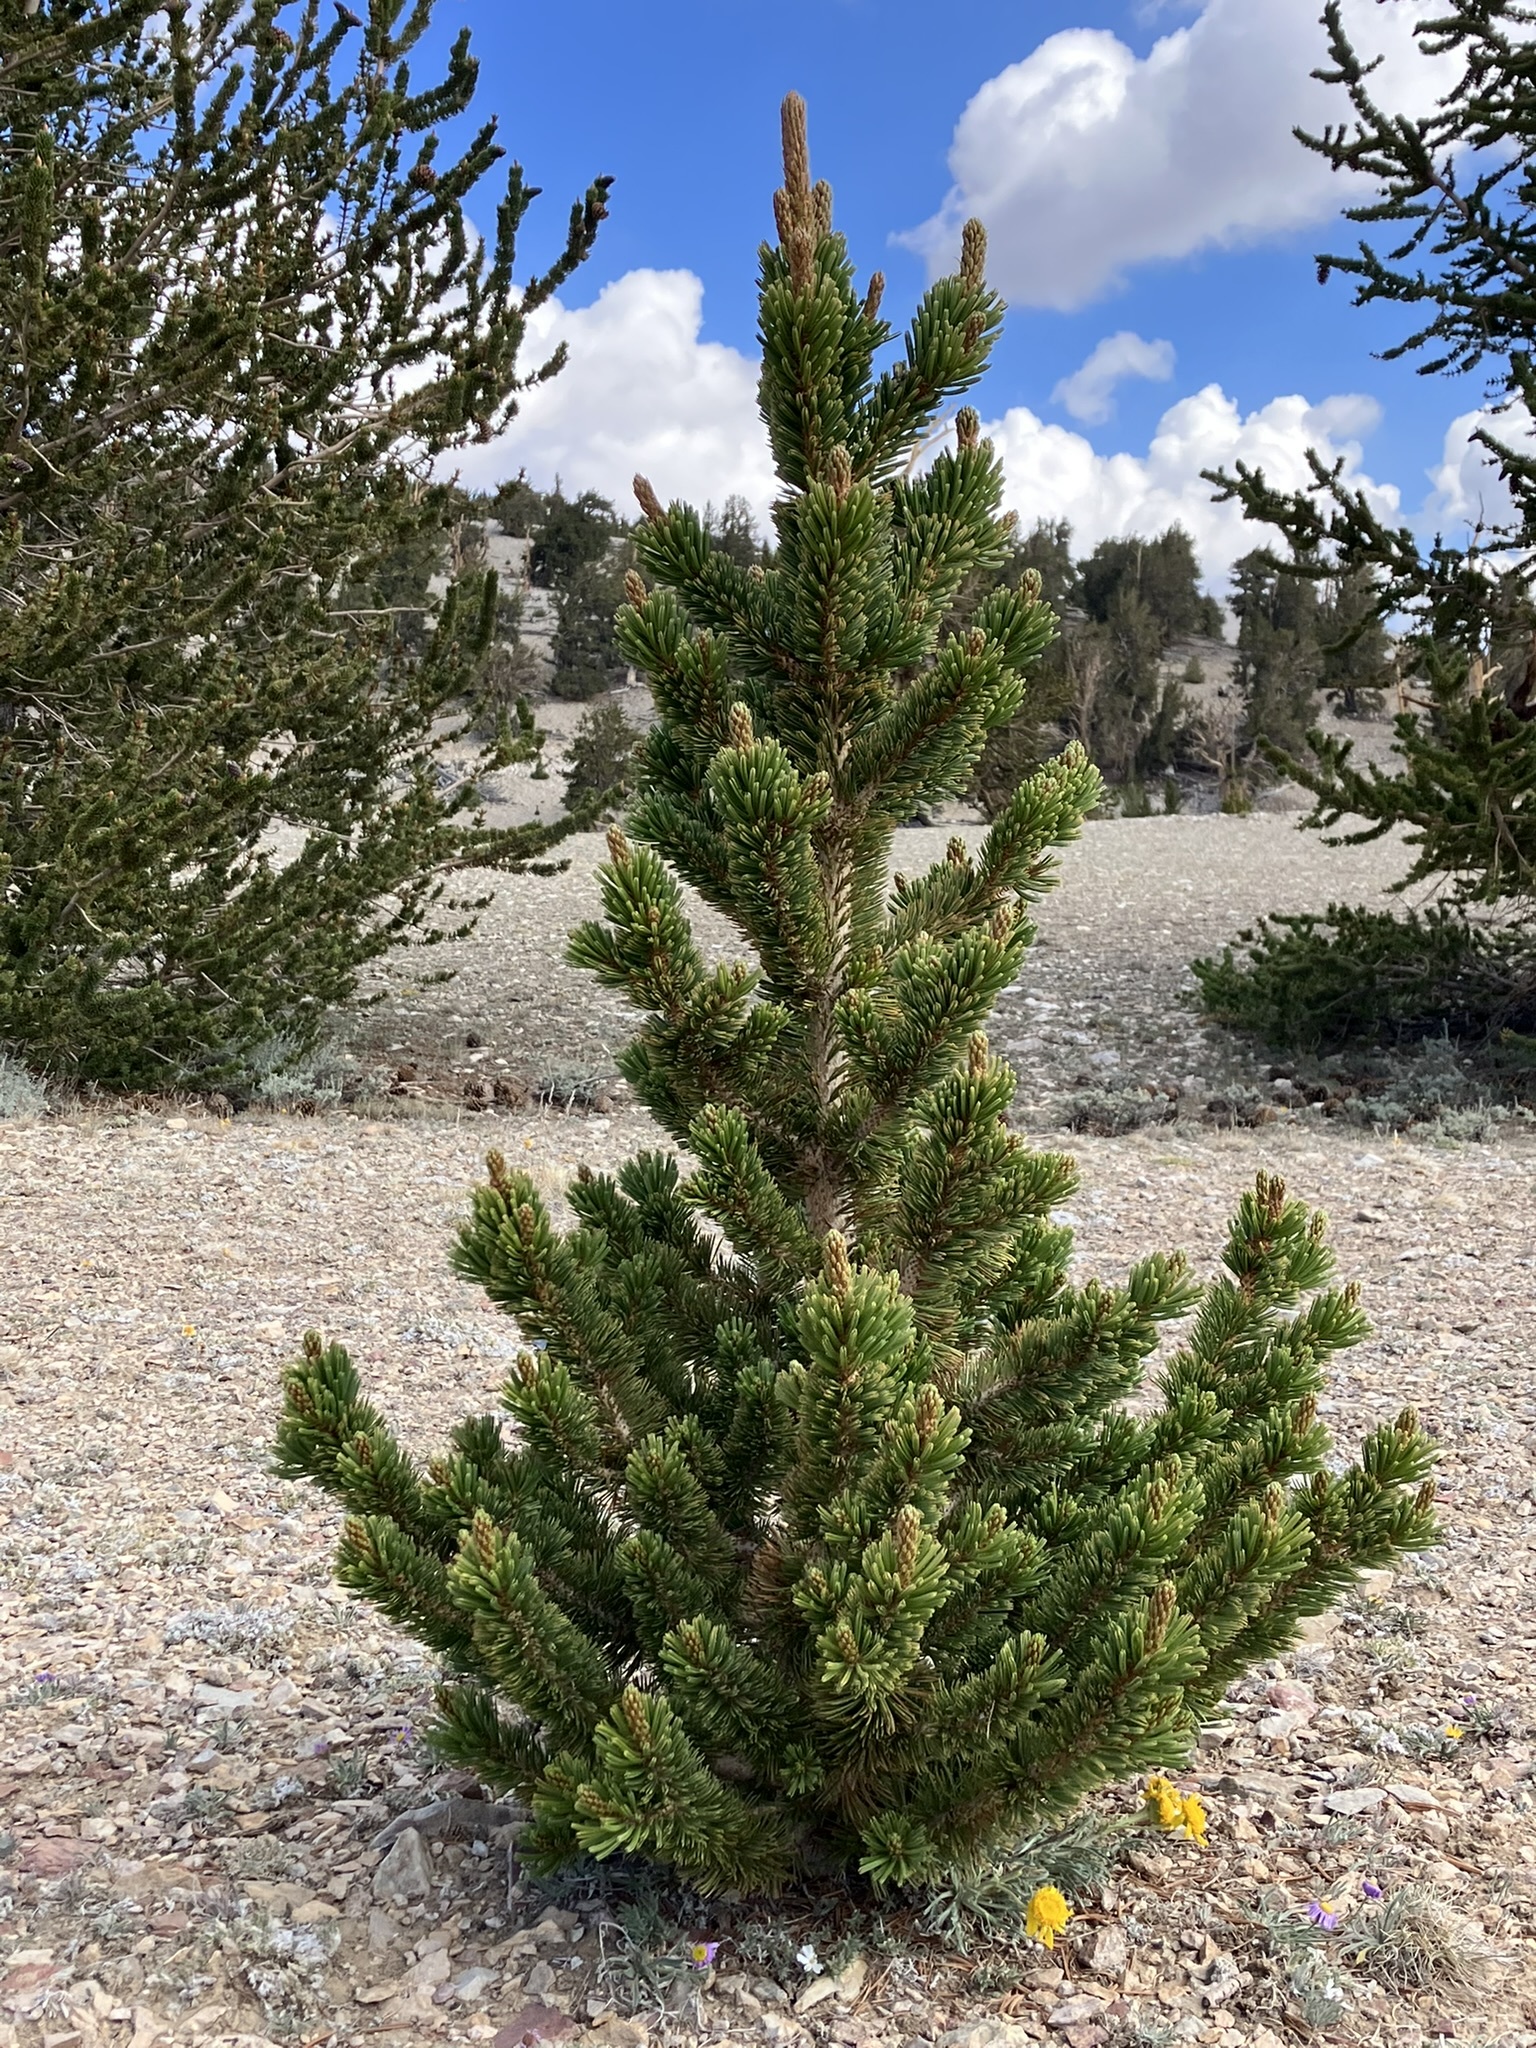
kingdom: Plantae
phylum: Tracheophyta
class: Pinopsida
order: Pinales
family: Pinaceae
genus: Pinus
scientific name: Pinus longaeva
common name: Intermountain bristlecone pine
